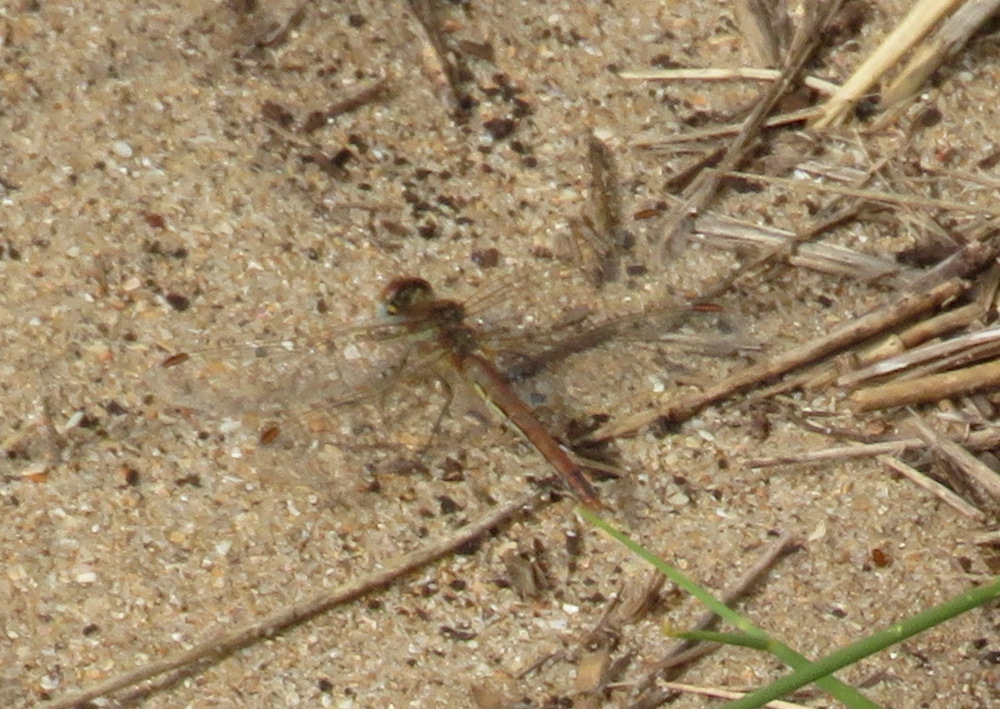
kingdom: Animalia
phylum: Arthropoda
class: Insecta
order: Odonata
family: Libellulidae
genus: Sympetrum
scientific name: Sympetrum fonscolombii
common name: Red-veined darter
